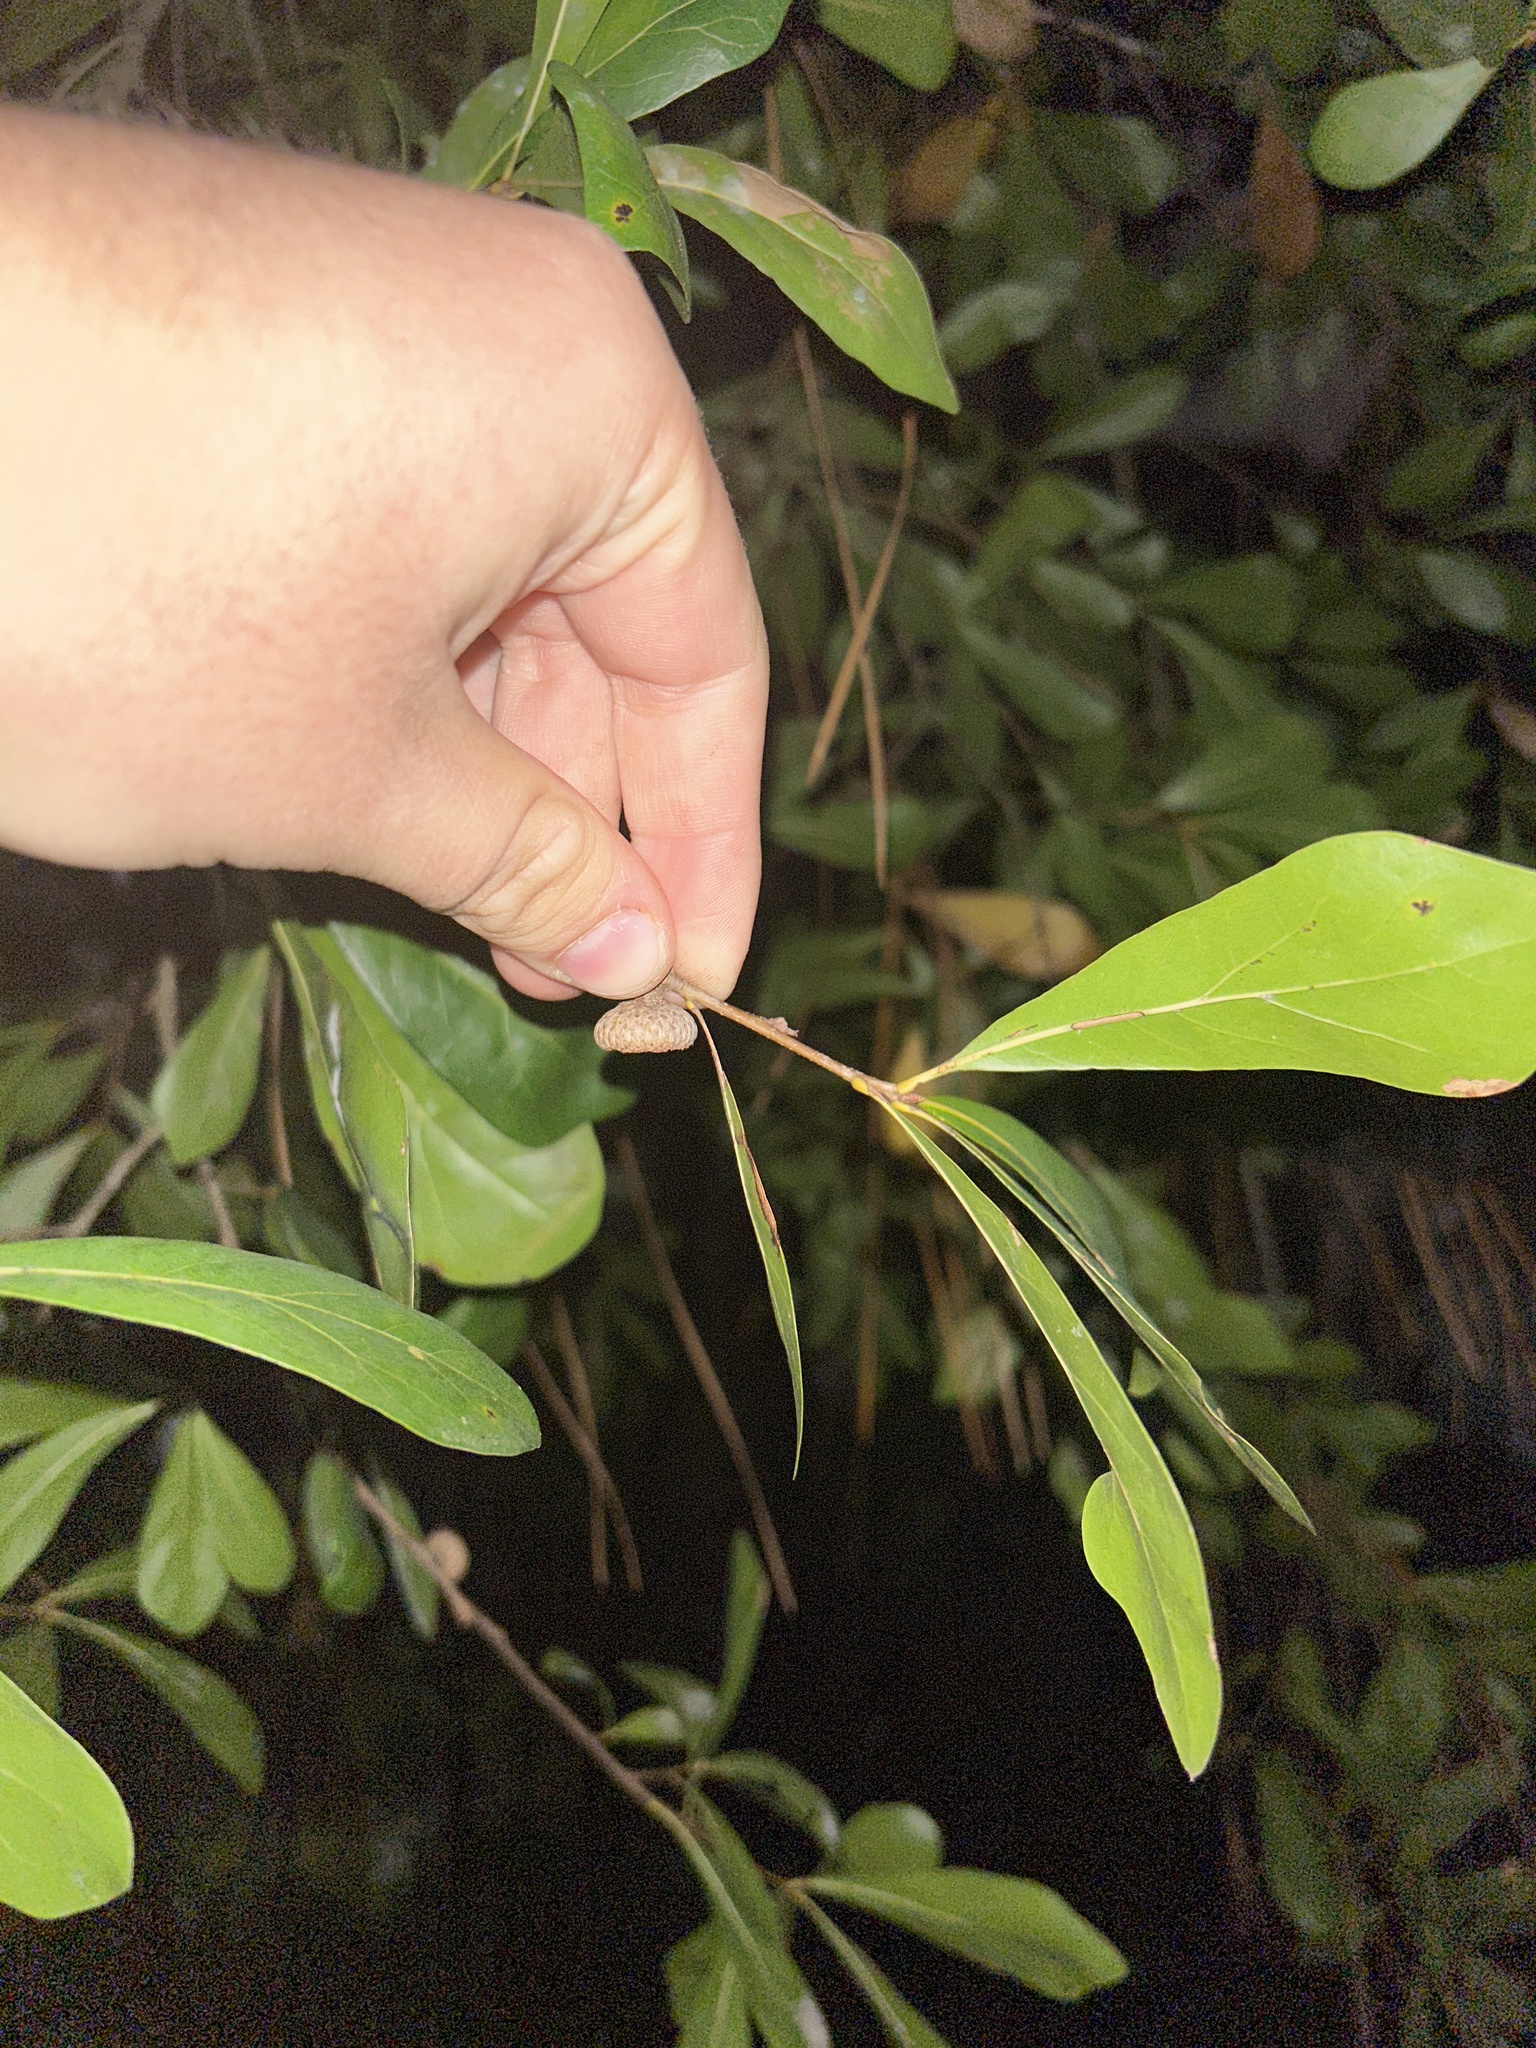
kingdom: Plantae
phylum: Tracheophyta
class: Magnoliopsida
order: Fagales
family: Fagaceae
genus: Quercus
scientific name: Quercus nigra
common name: Water oak
